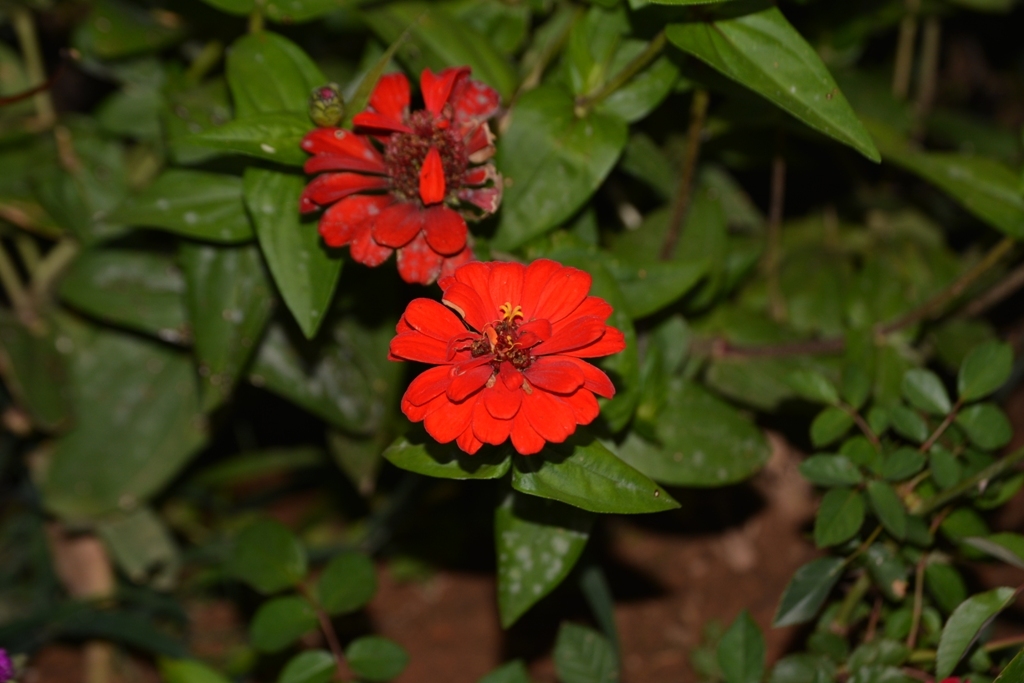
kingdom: Plantae
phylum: Tracheophyta
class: Magnoliopsida
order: Asterales
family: Asteraceae
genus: Zinnia
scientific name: Zinnia peruviana
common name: Peruvian zinnia
